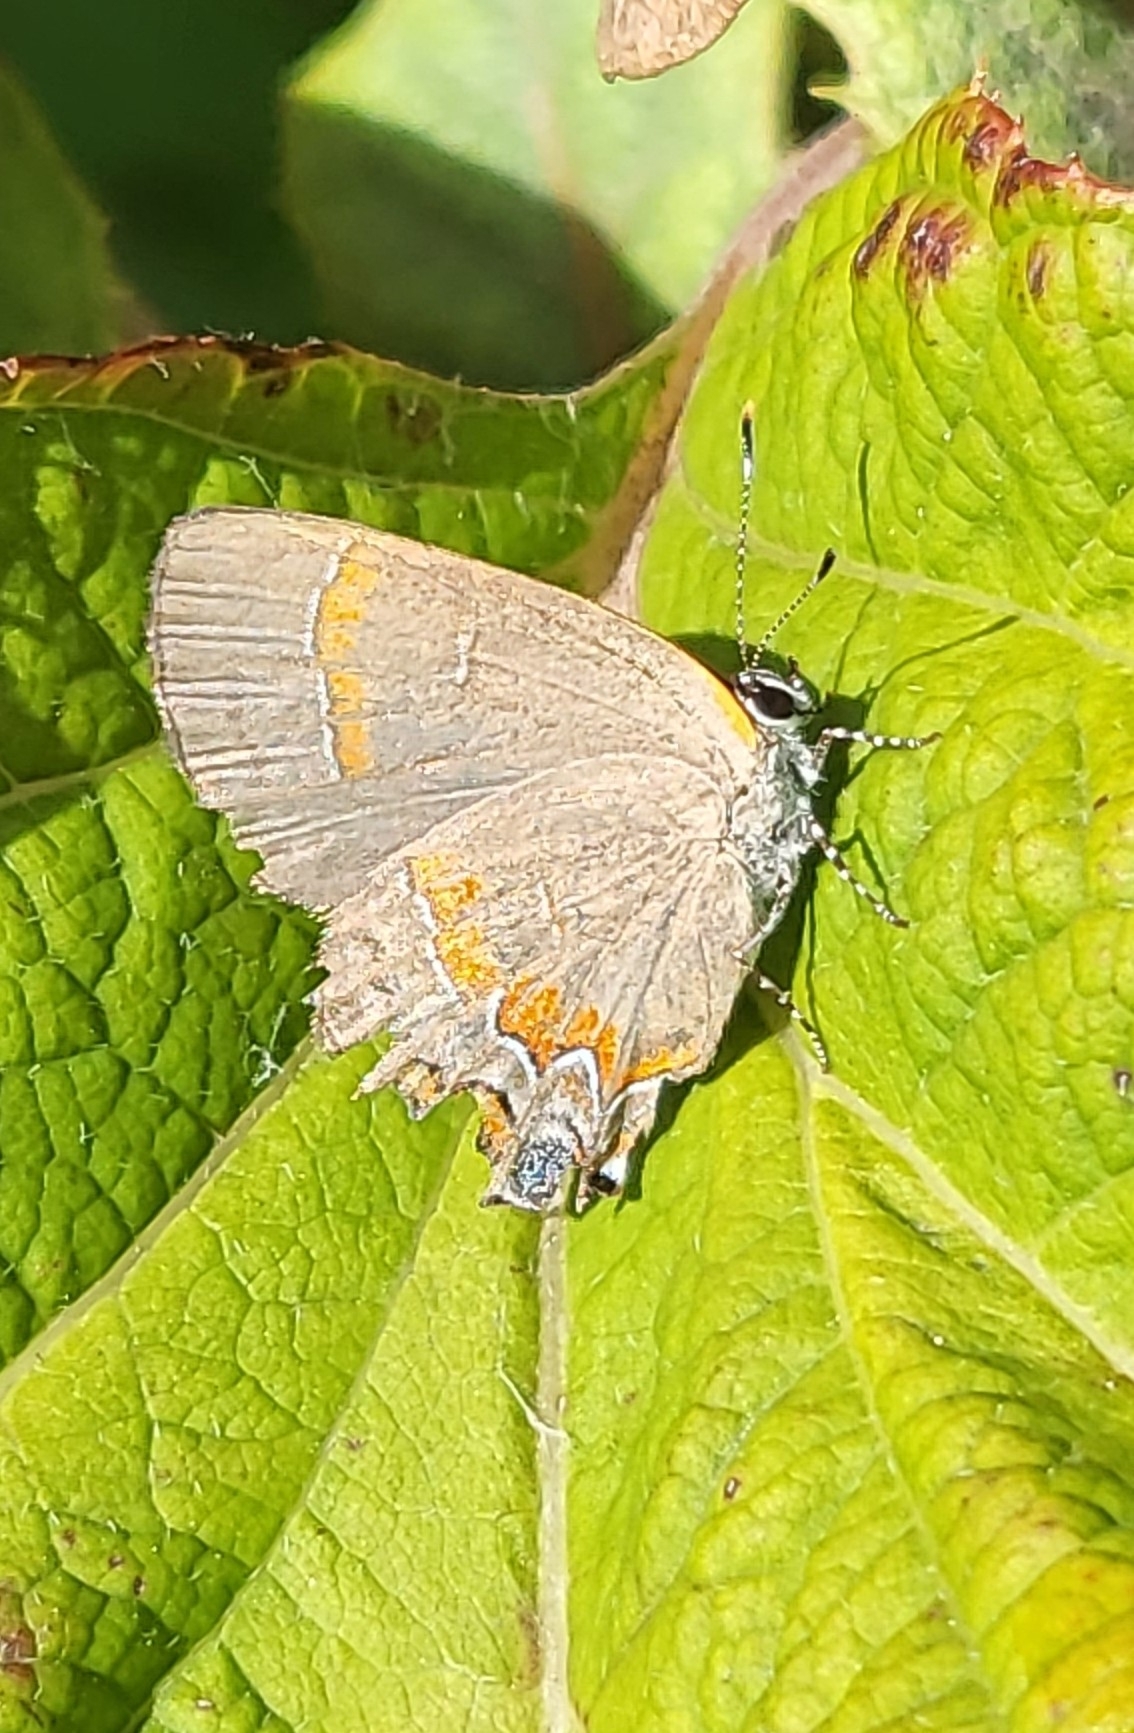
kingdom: Animalia
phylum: Arthropoda
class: Insecta
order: Lepidoptera
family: Lycaenidae
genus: Calycopis
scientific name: Calycopis cecrops
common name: Red-banded hairstreak
